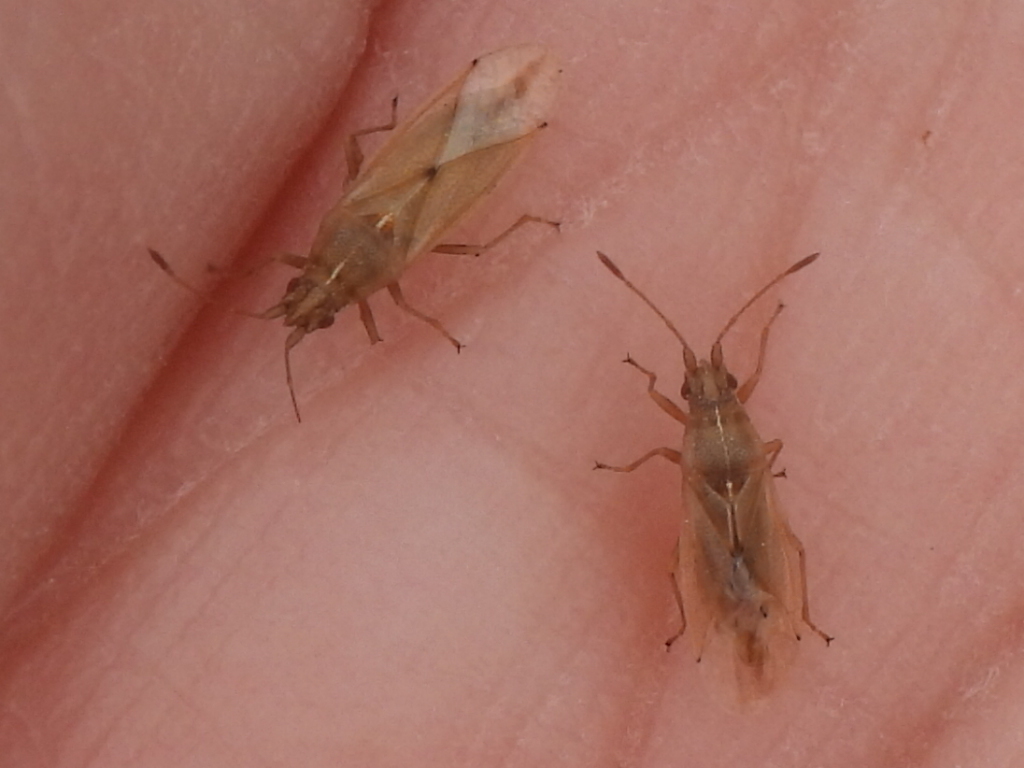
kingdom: Animalia
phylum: Arthropoda
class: Insecta
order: Hemiptera
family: Cymidae
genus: Cymodema
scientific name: Cymodema breviceps
